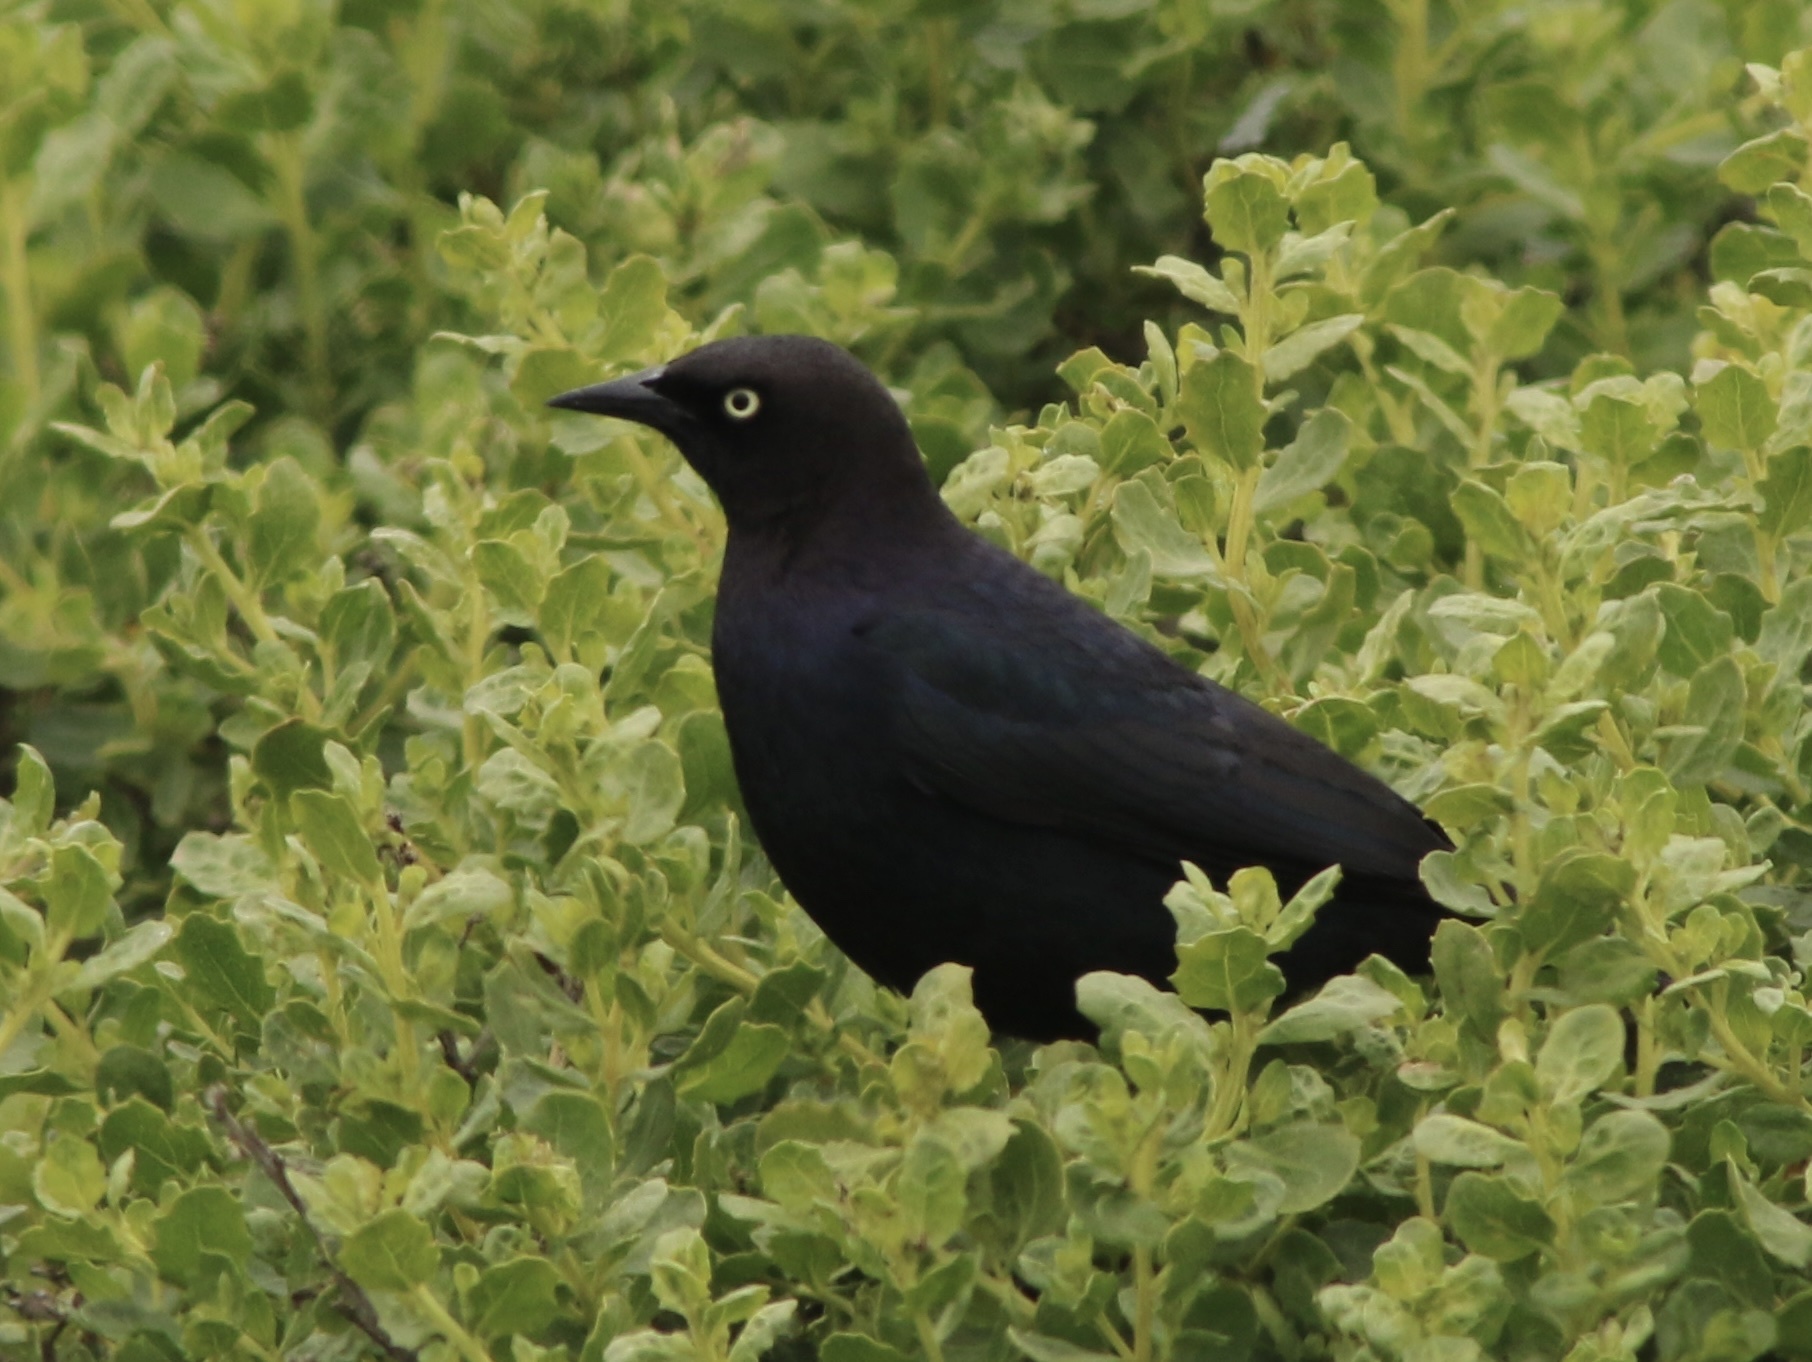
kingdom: Animalia
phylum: Chordata
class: Aves
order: Passeriformes
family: Icteridae
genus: Euphagus
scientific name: Euphagus cyanocephalus
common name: Brewer's blackbird
